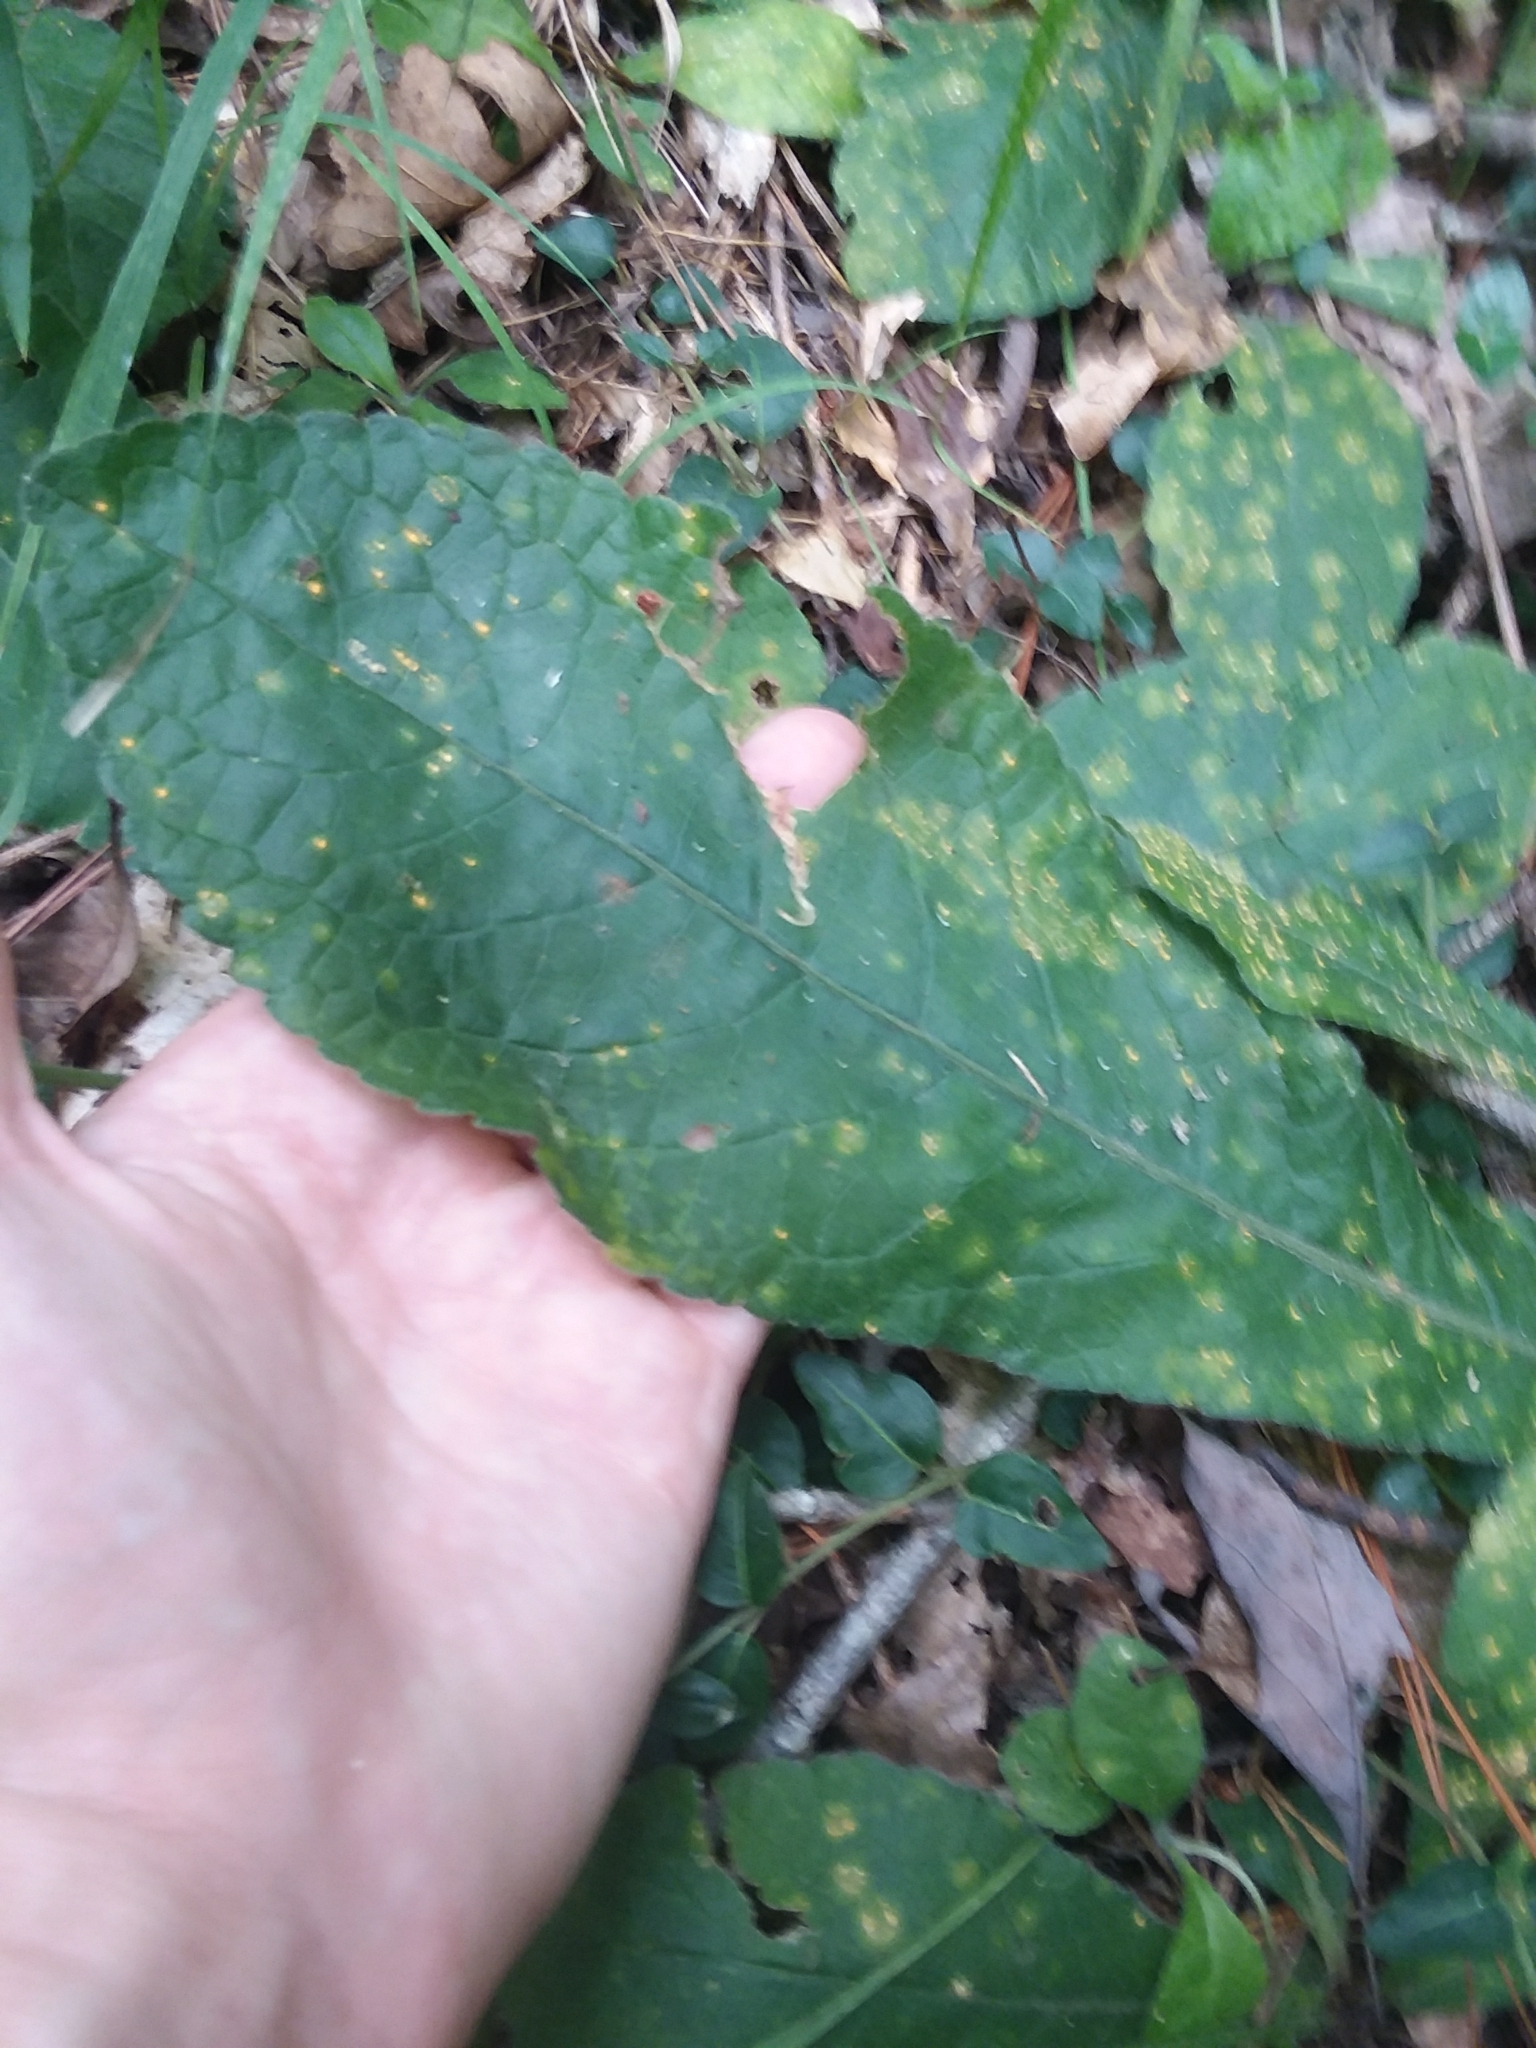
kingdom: Plantae
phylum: Tracheophyta
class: Magnoliopsida
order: Asterales
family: Asteraceae
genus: Elephantopus
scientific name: Elephantopus tomentosus
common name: Tobacco-weed
